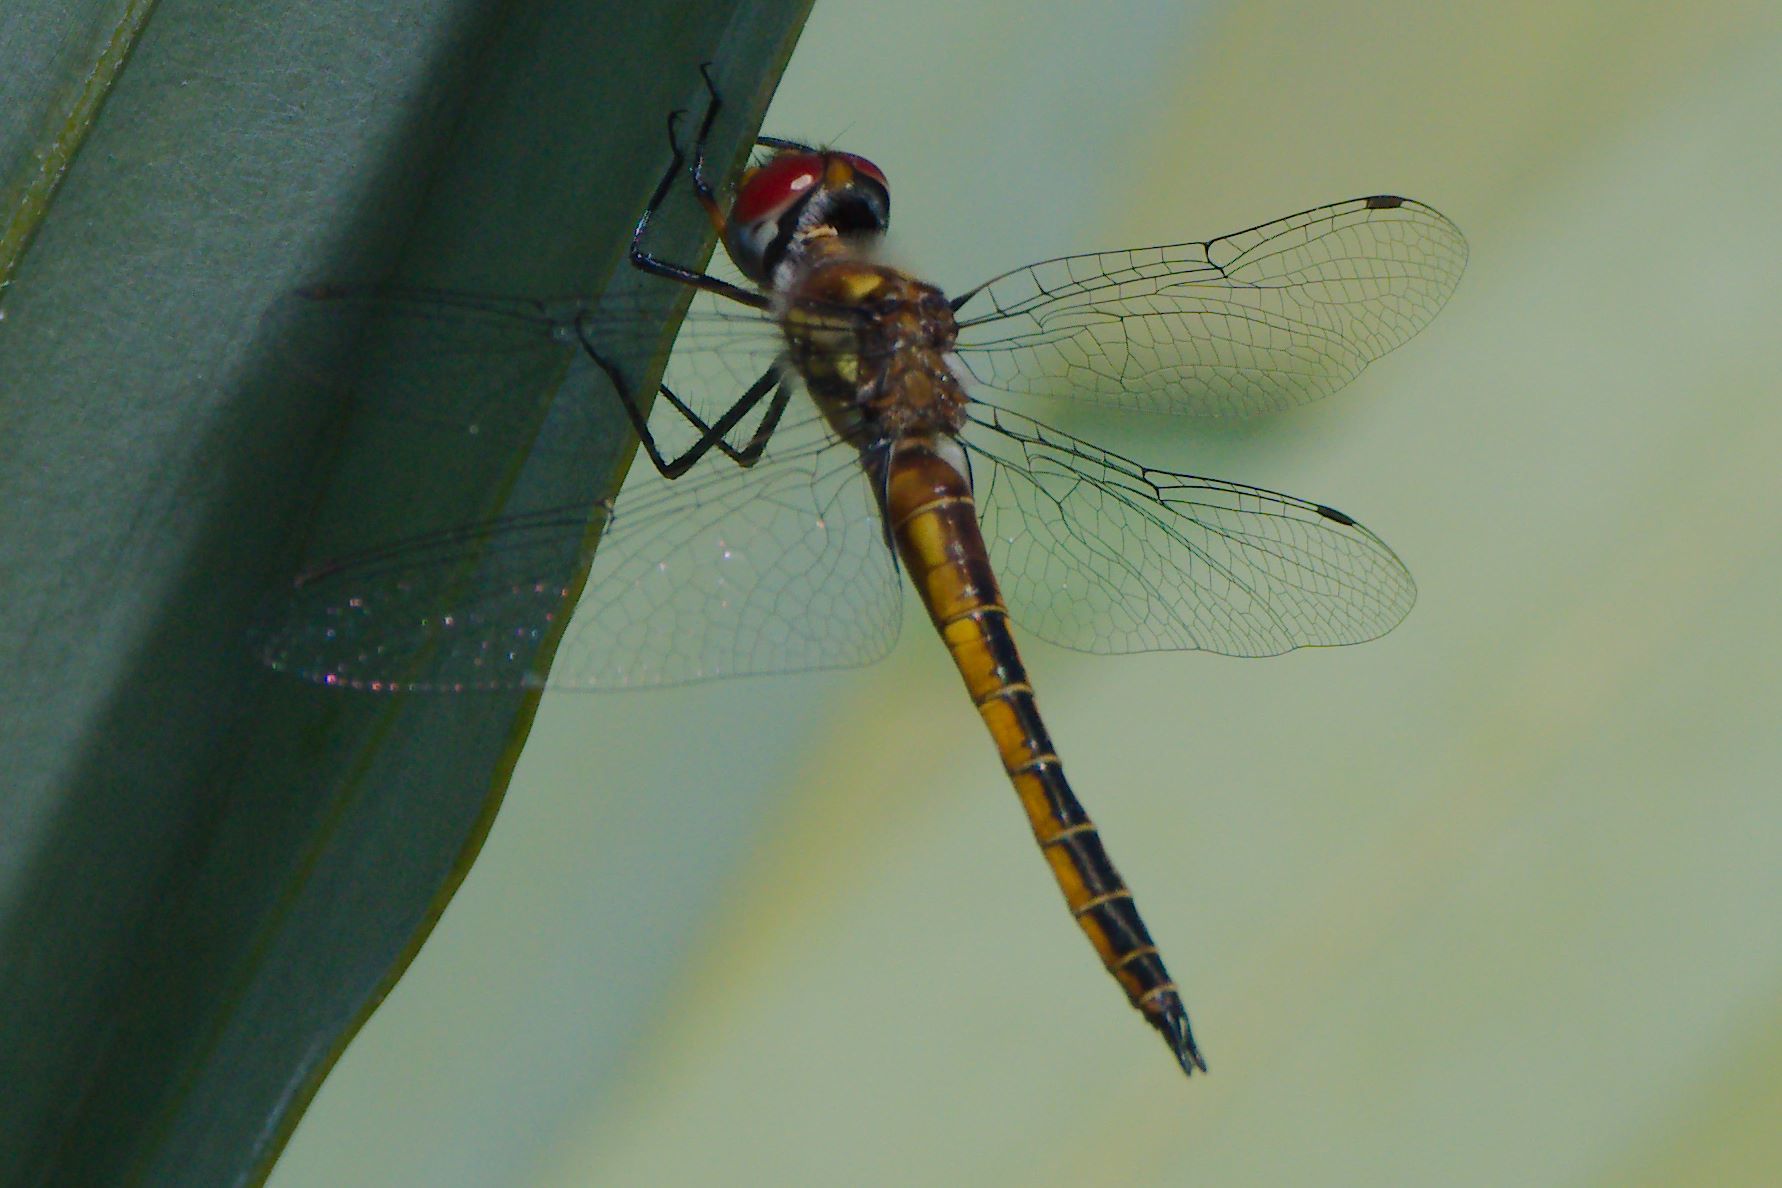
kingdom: Animalia
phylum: Arthropoda
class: Insecta
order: Odonata
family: Corduliidae
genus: Epitheca
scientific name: Epitheca sepia
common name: Sepia baskettail
